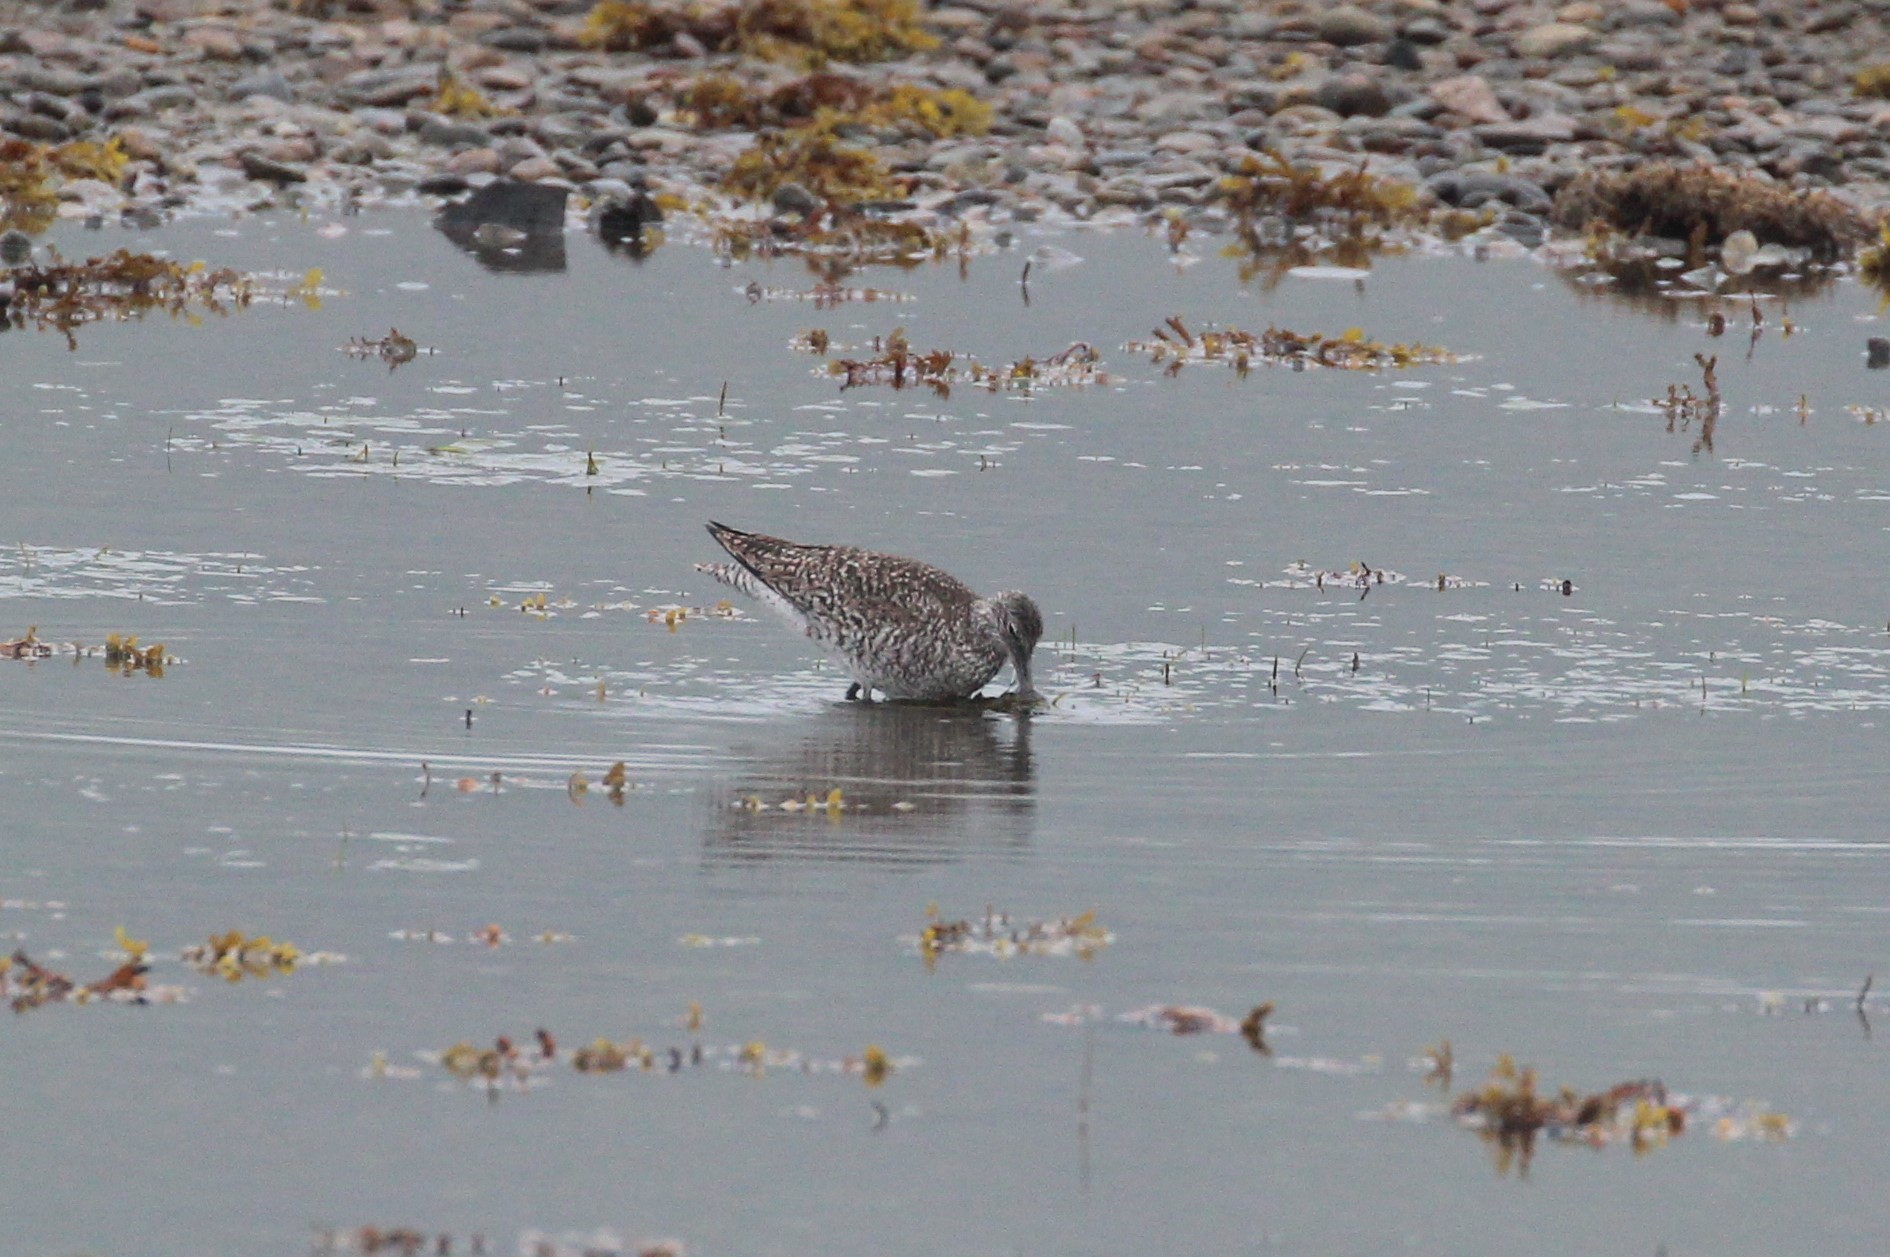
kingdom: Animalia
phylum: Chordata
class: Aves
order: Charadriiformes
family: Scolopacidae
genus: Tringa
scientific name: Tringa semipalmata
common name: Willet
